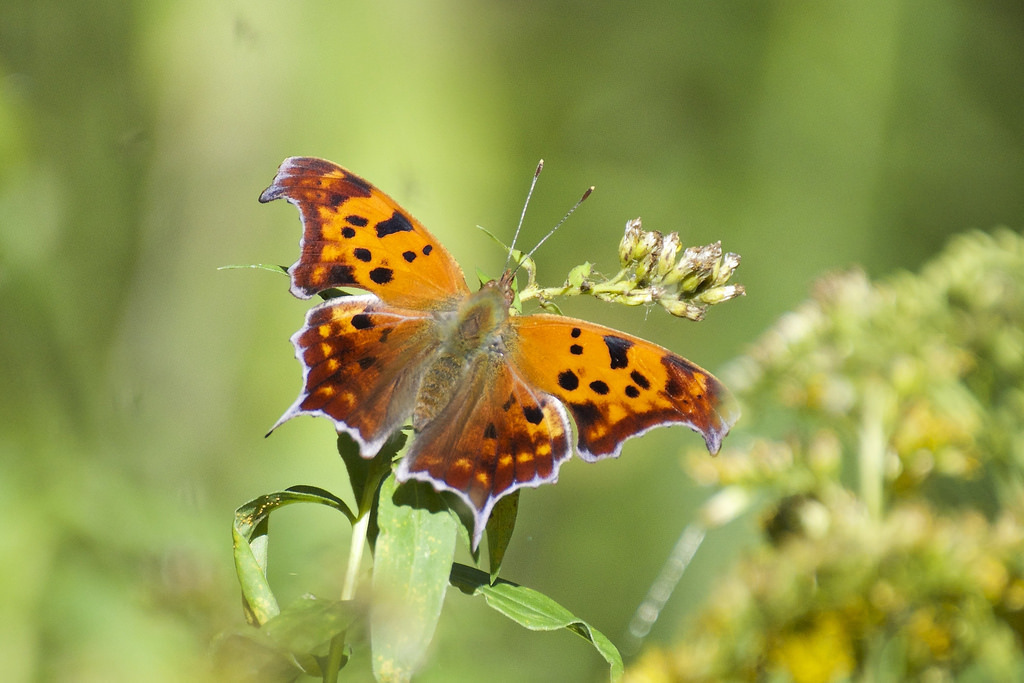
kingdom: Animalia
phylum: Arthropoda
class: Insecta
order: Lepidoptera
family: Nymphalidae
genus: Polygonia
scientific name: Polygonia interrogationis
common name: Question mark
